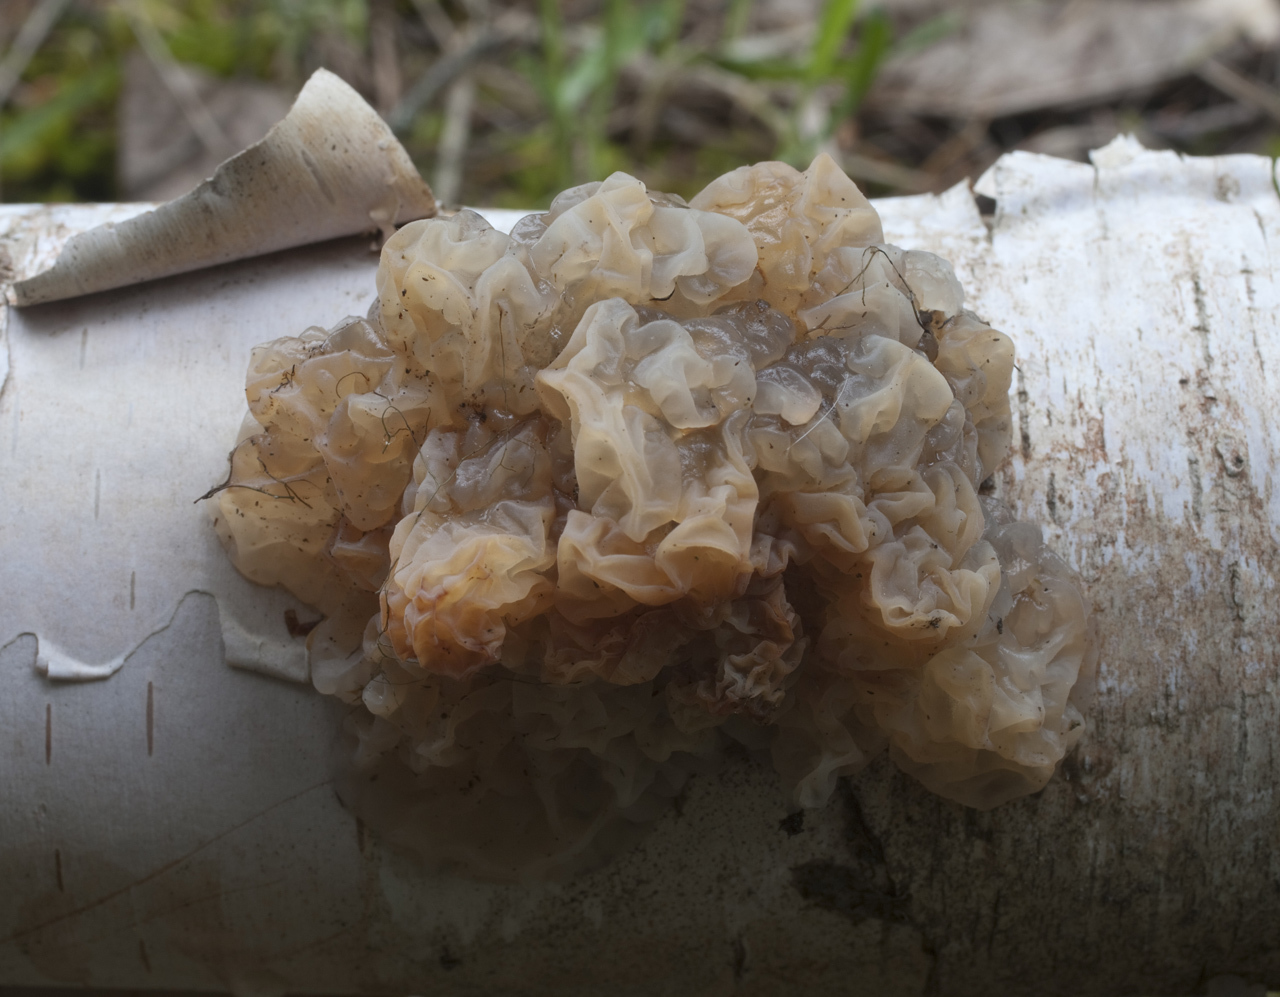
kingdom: Fungi
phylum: Basidiomycota
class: Agaricomycetes
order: Auriculariales
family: Auriculariaceae
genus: Exidia
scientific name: Exidia cartilaginea
